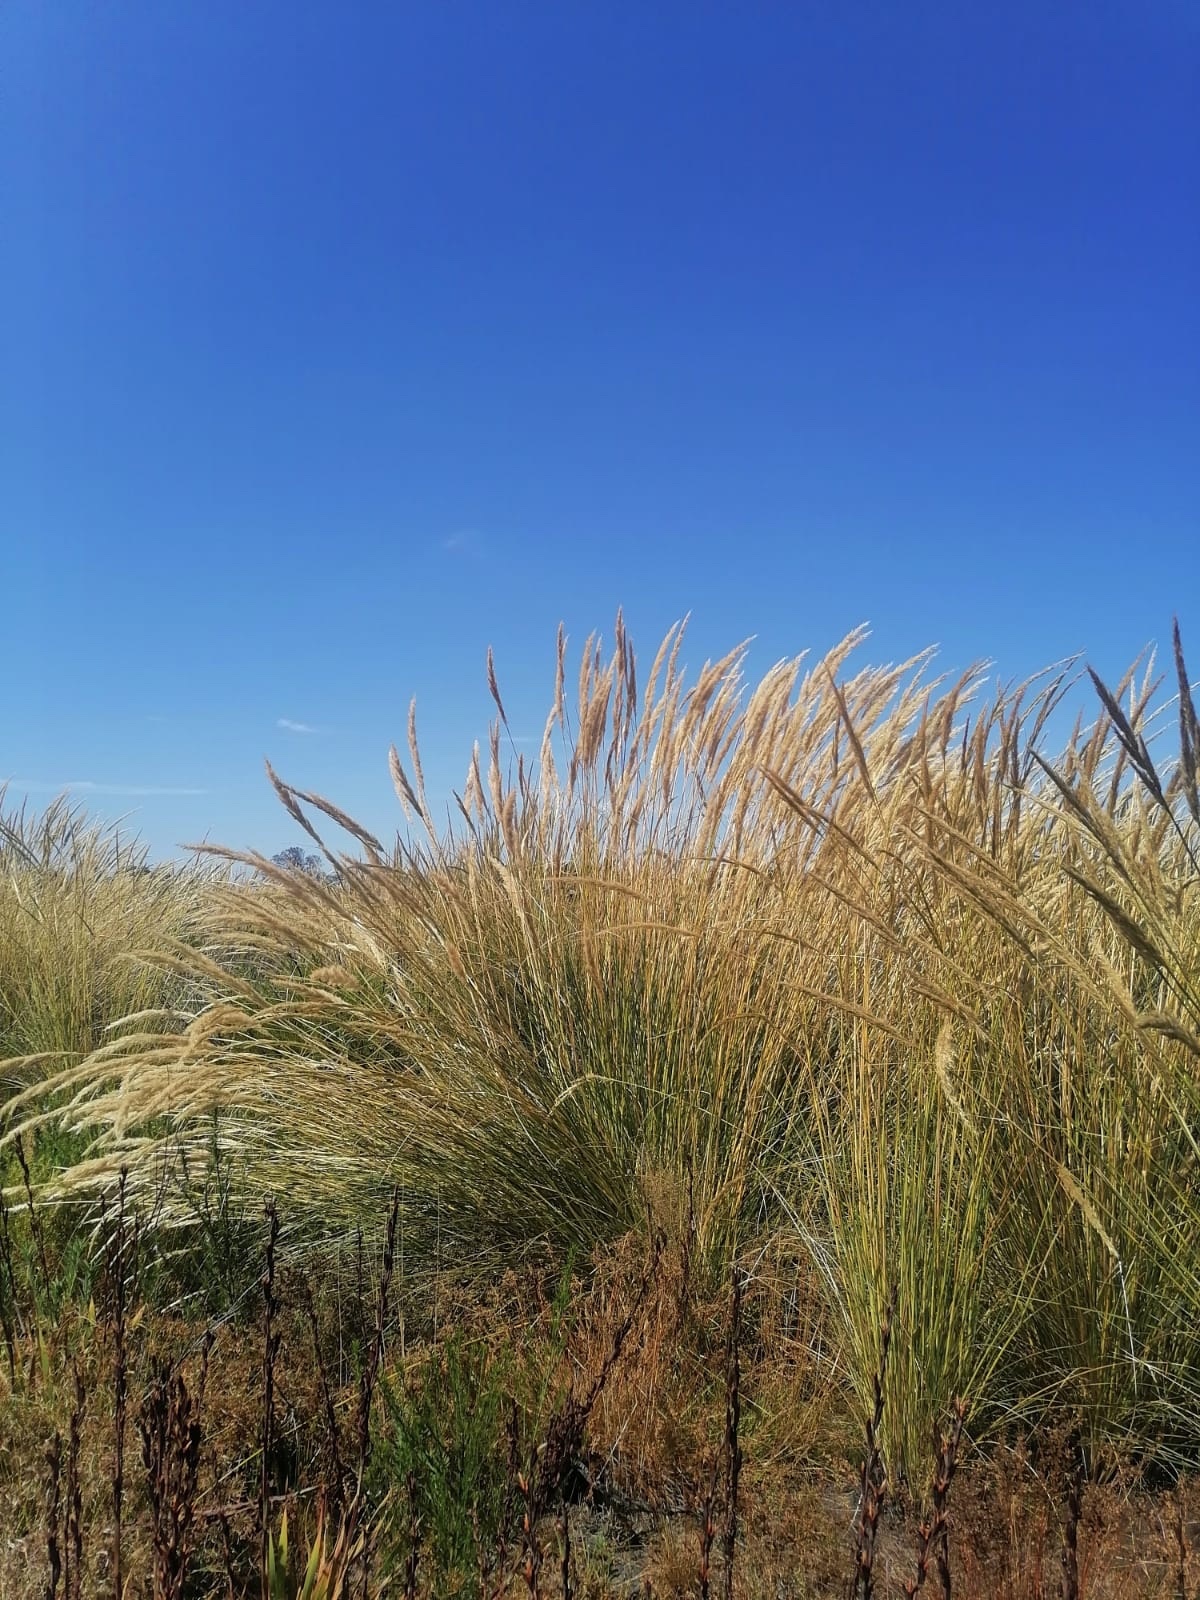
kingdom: Plantae
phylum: Tracheophyta
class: Liliopsida
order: Poales
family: Poaceae
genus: Capeochloa
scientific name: Capeochloa cincta
